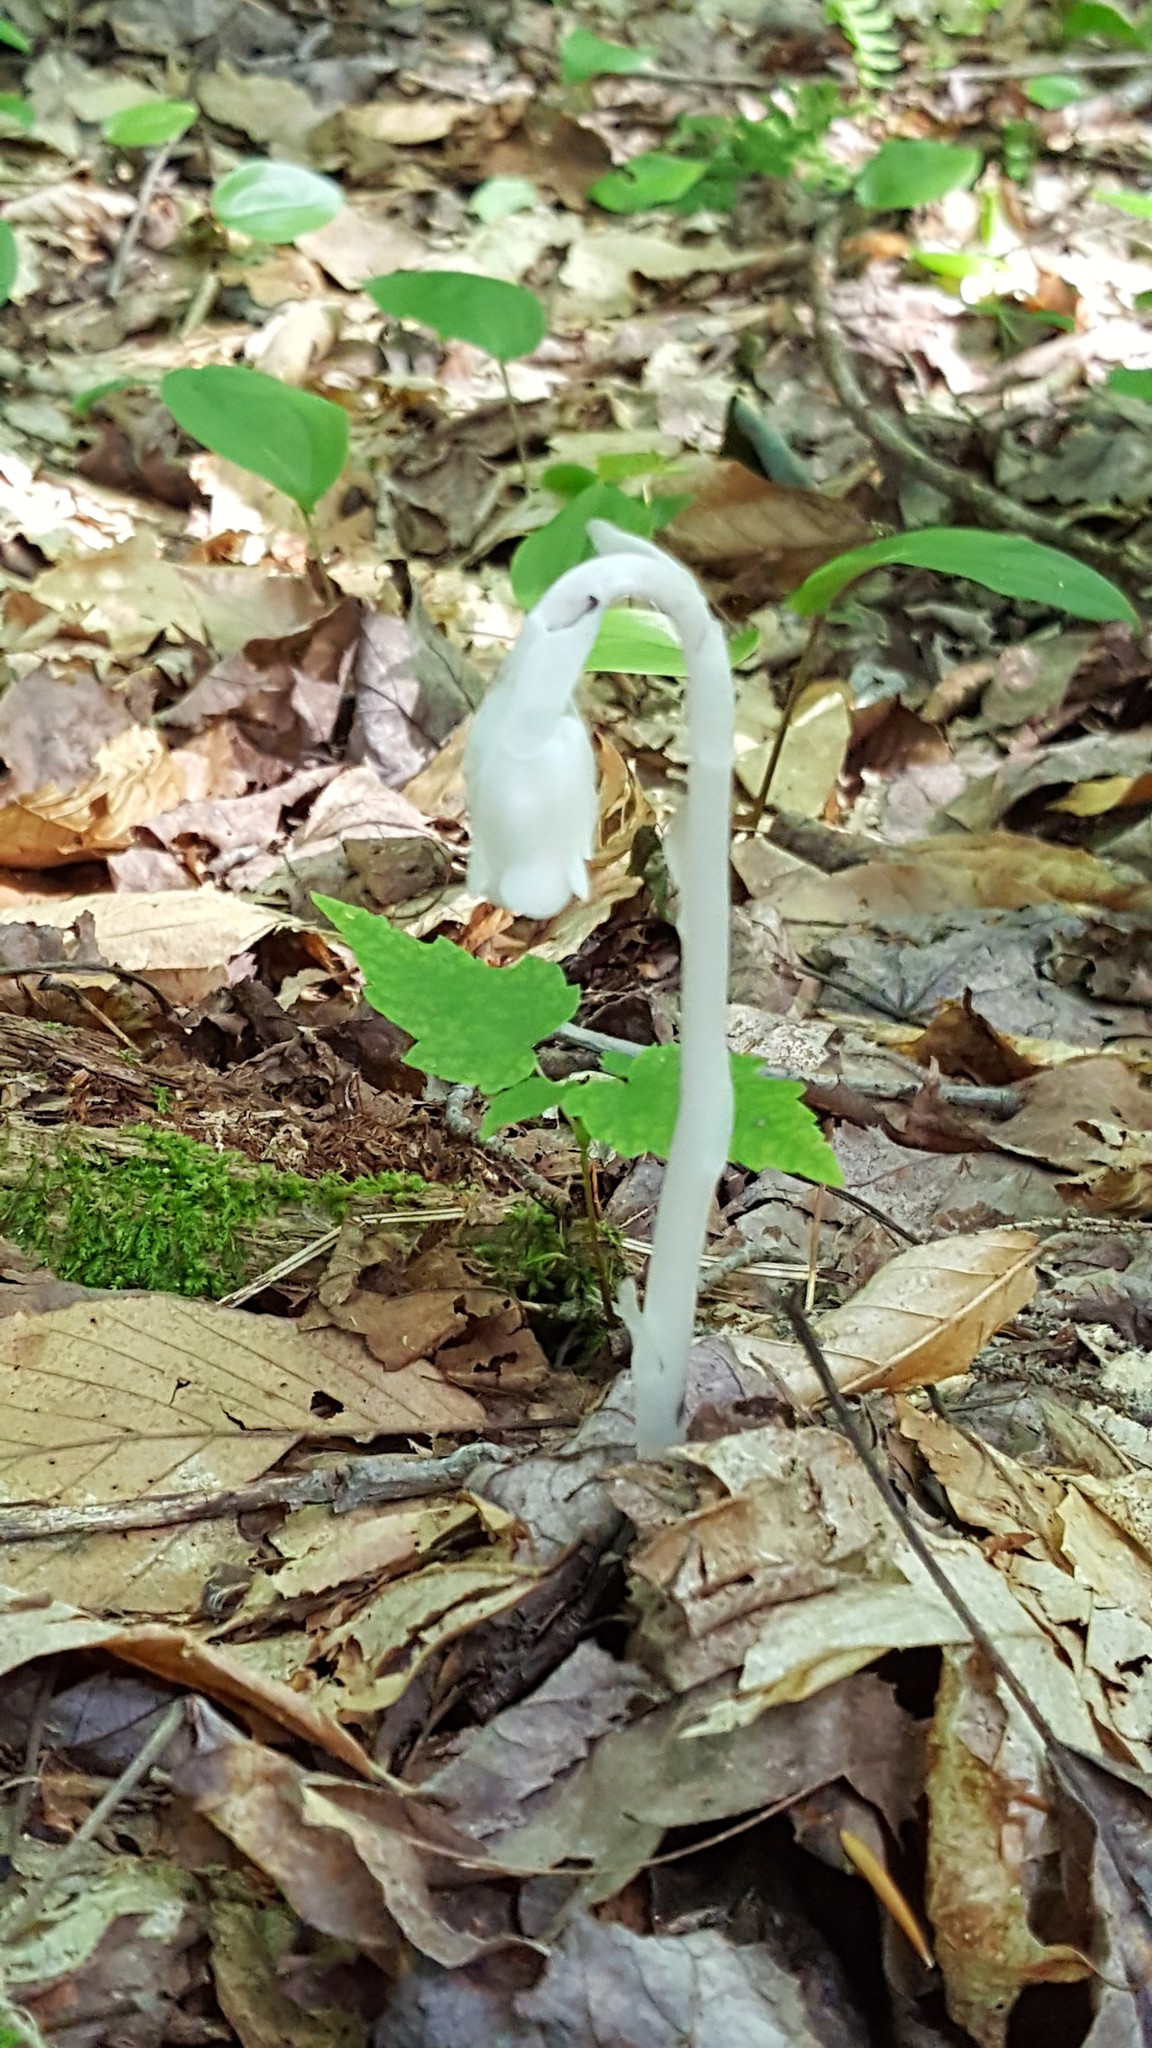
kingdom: Plantae
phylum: Tracheophyta
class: Magnoliopsida
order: Ericales
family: Ericaceae
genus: Monotropa
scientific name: Monotropa uniflora
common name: Convulsion root
